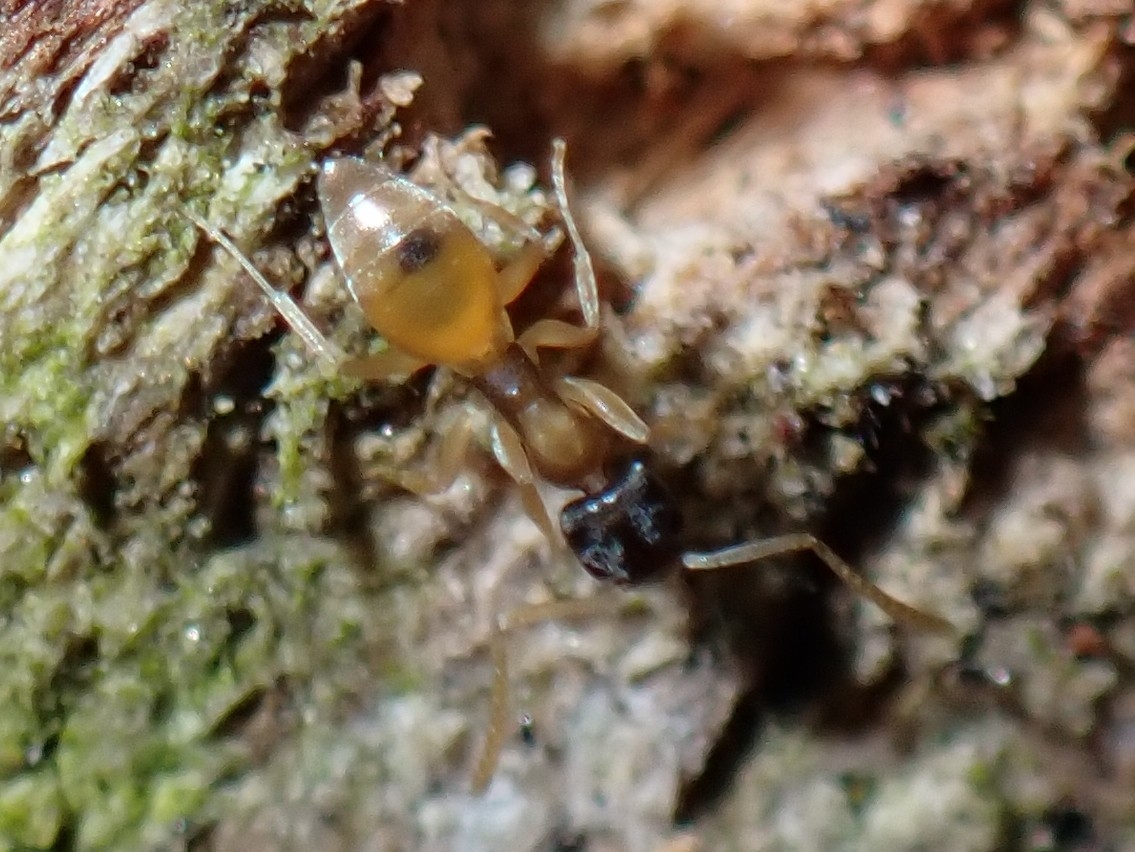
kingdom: Animalia
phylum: Arthropoda
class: Insecta
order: Hymenoptera
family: Formicidae
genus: Tapinoma
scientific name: Tapinoma melanocephalum
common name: Ghost ant
